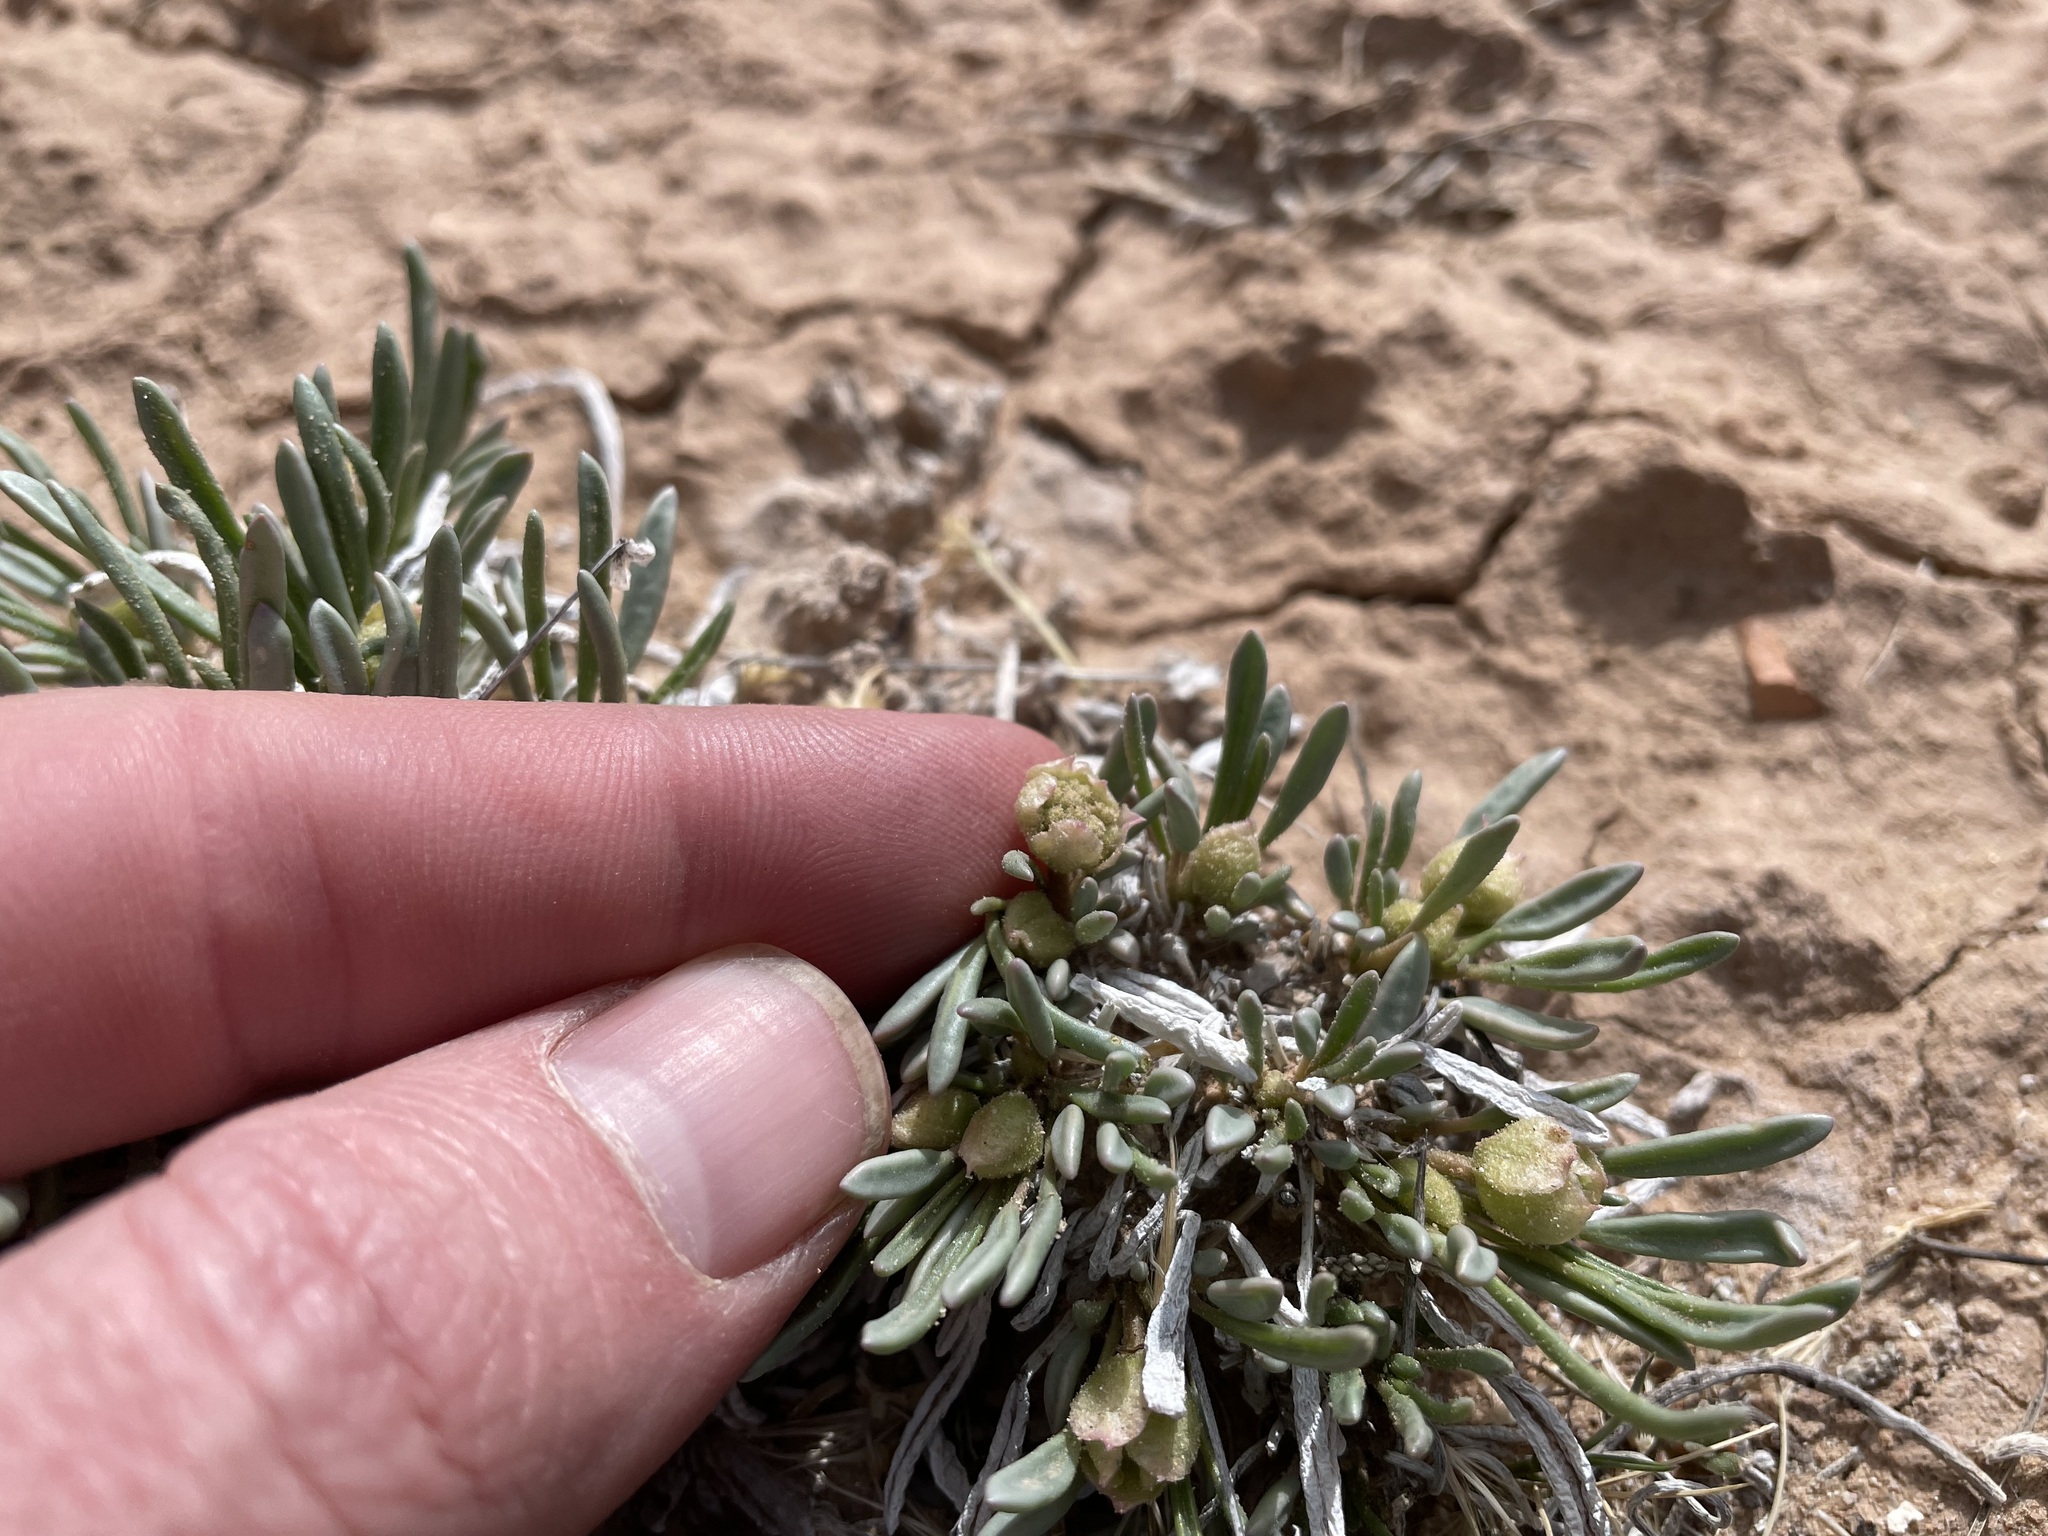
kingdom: Plantae
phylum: Tracheophyta
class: Magnoliopsida
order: Caryophyllales
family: Nyctaginaceae
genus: Abronia
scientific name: Abronia bigelovii
